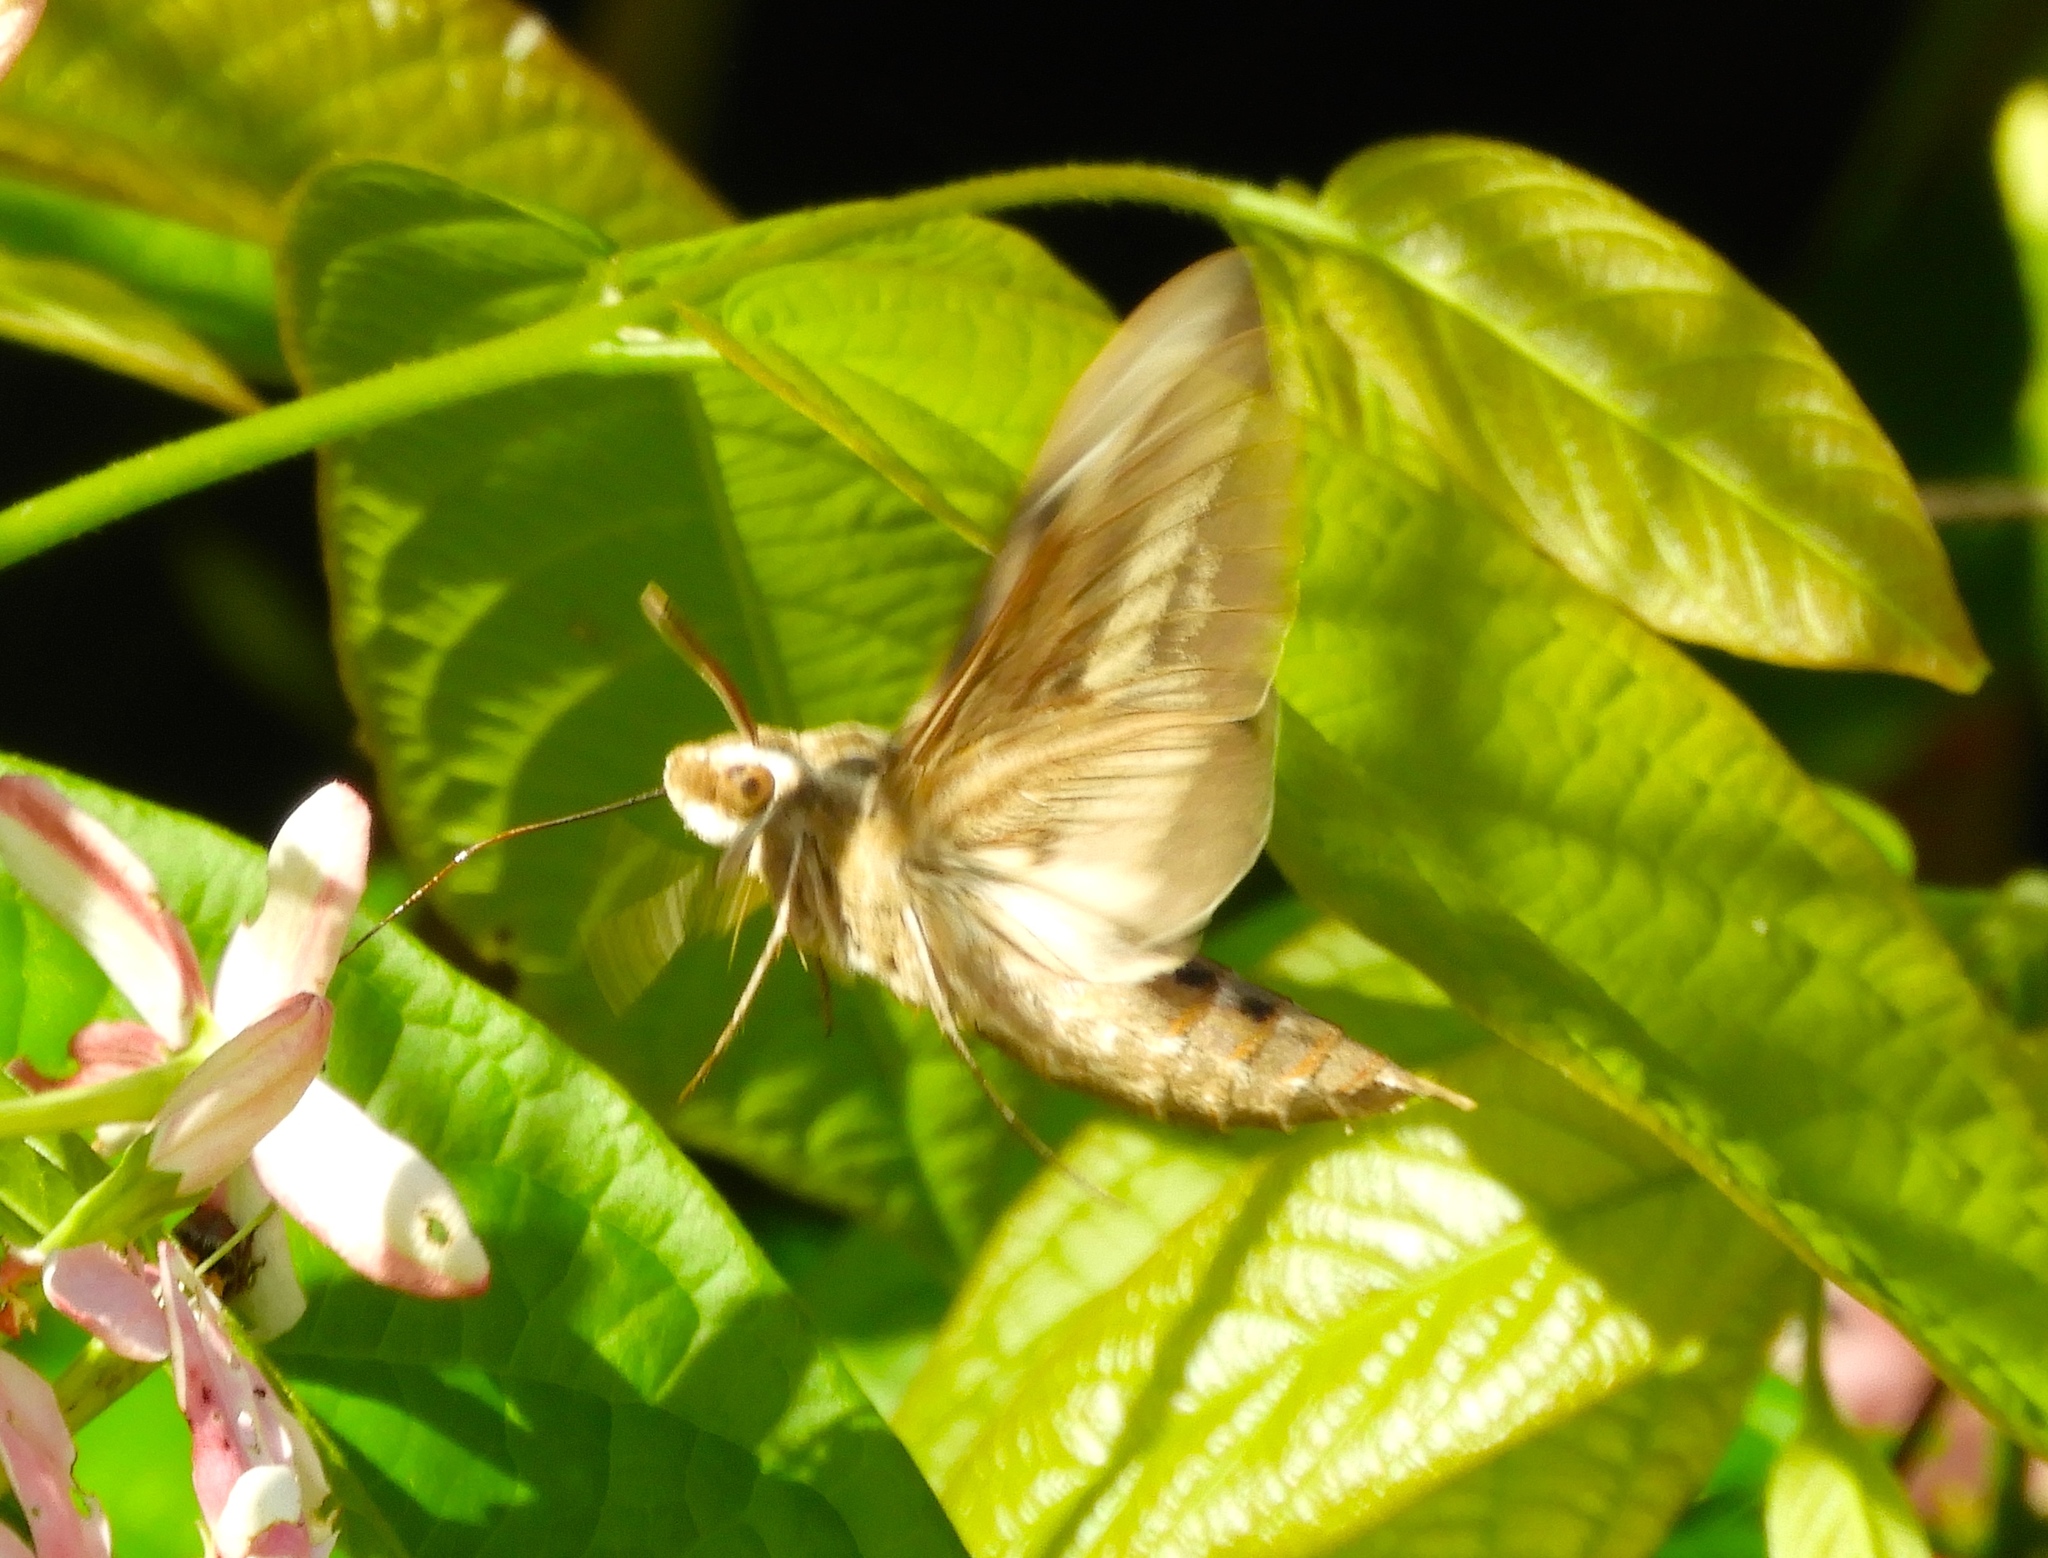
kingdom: Animalia
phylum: Arthropoda
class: Insecta
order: Lepidoptera
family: Sphingidae
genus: Hyles
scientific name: Hyles lineata
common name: White-lined sphinx
